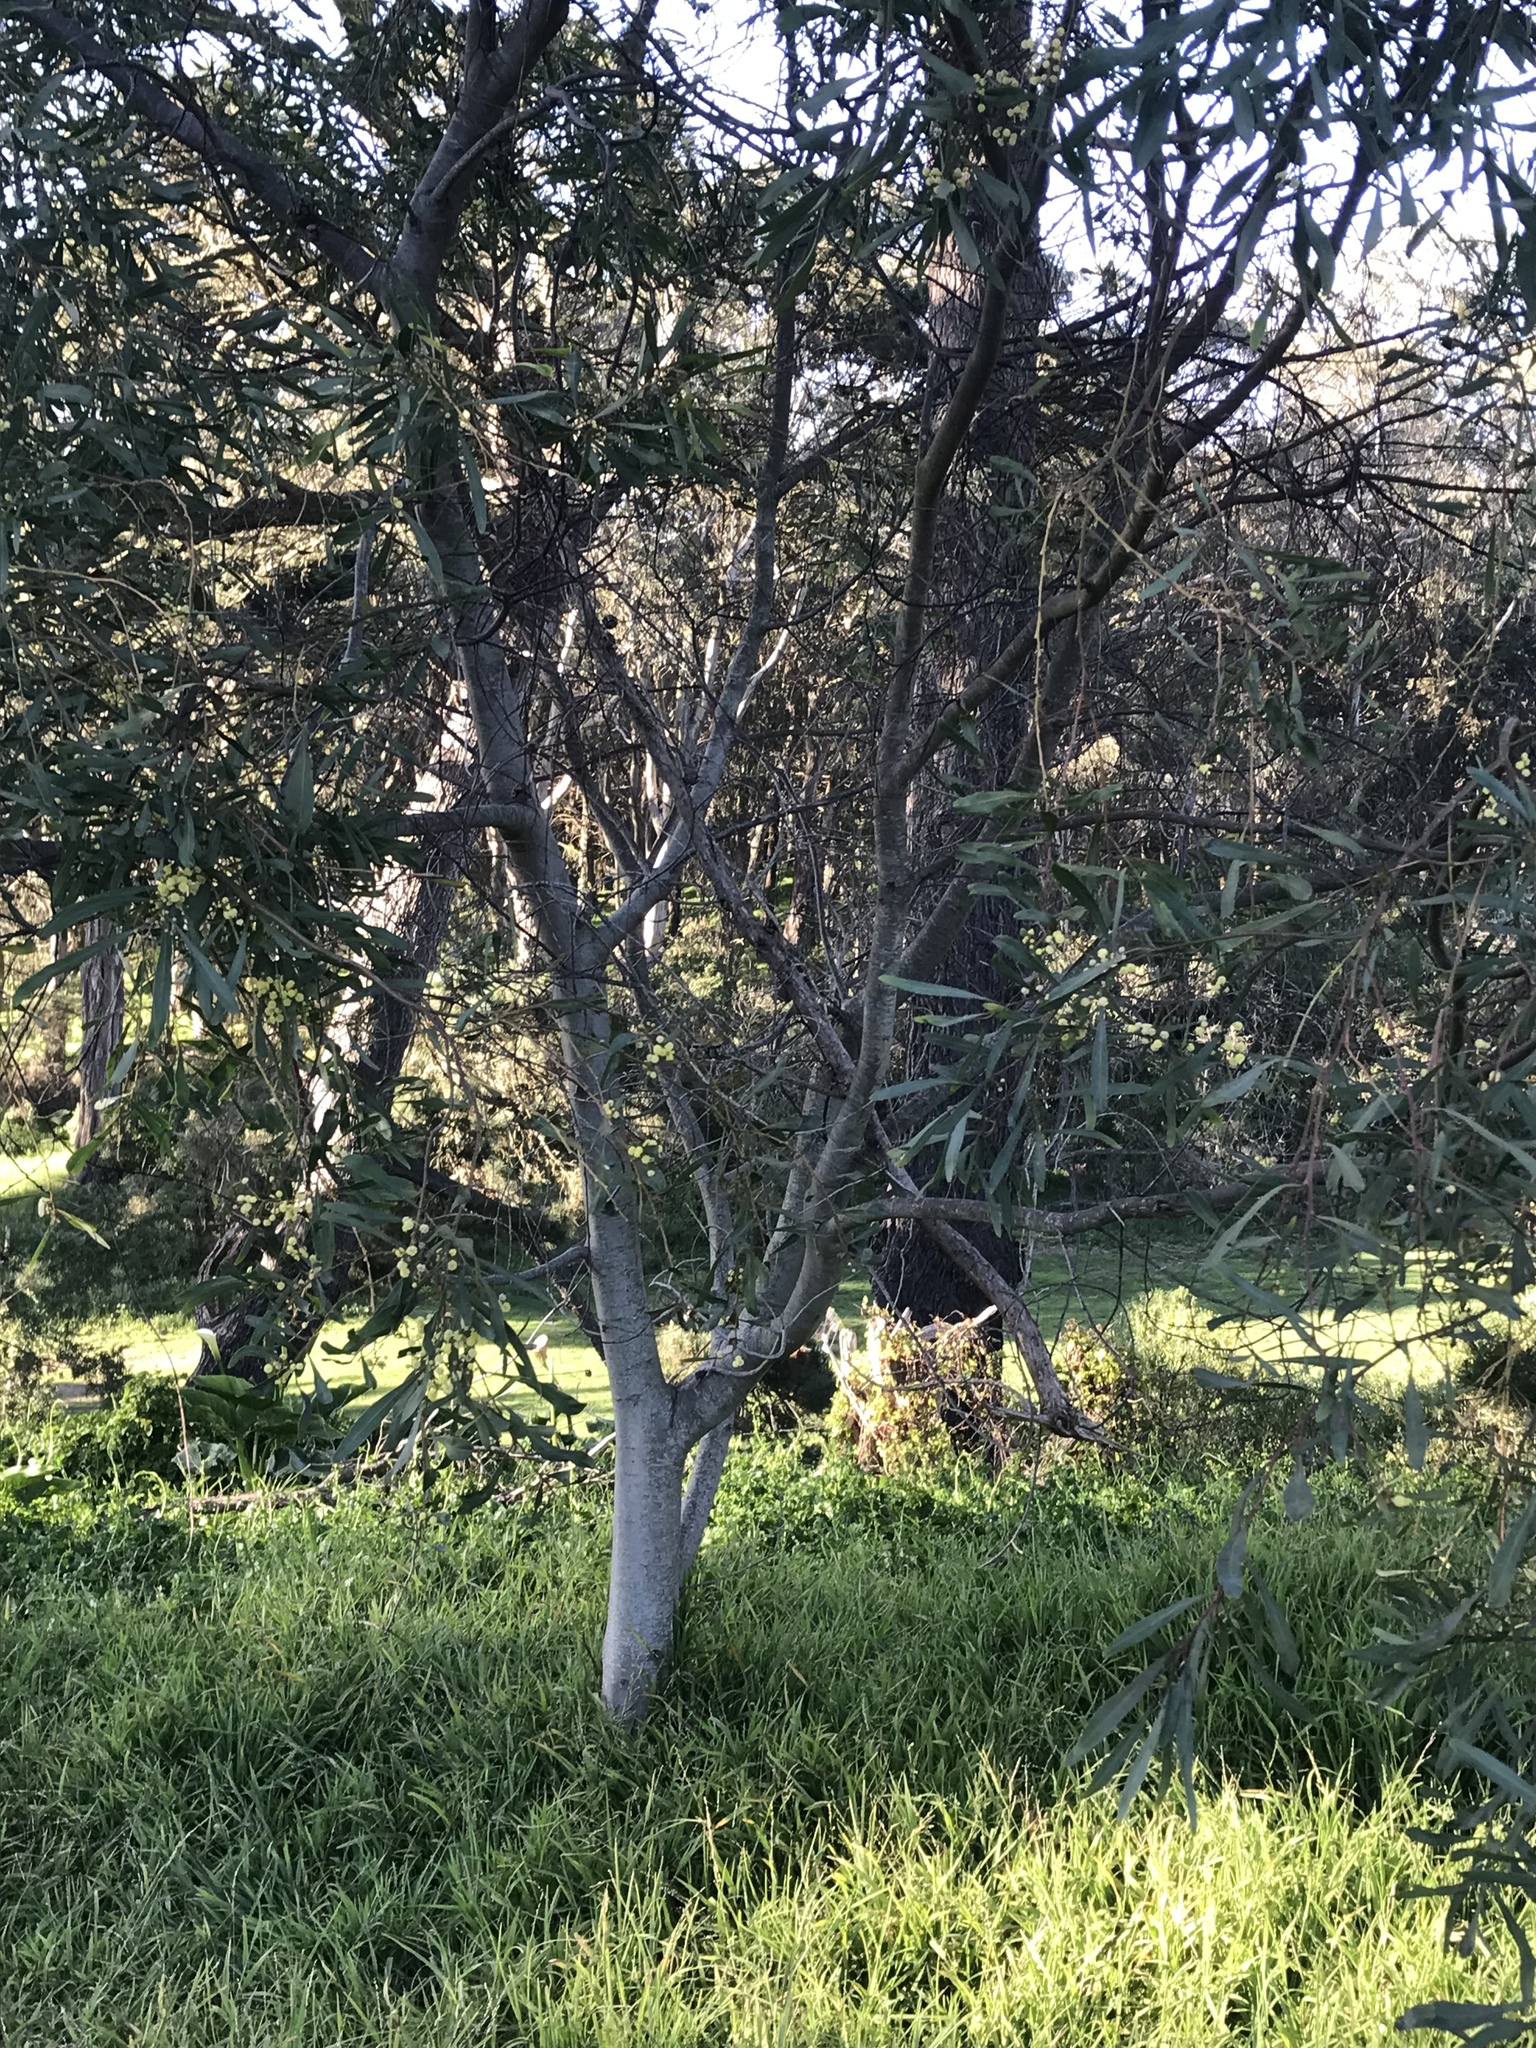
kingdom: Plantae
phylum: Tracheophyta
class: Magnoliopsida
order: Fabales
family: Fabaceae
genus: Acacia
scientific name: Acacia melanoxylon
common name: Blackwood
